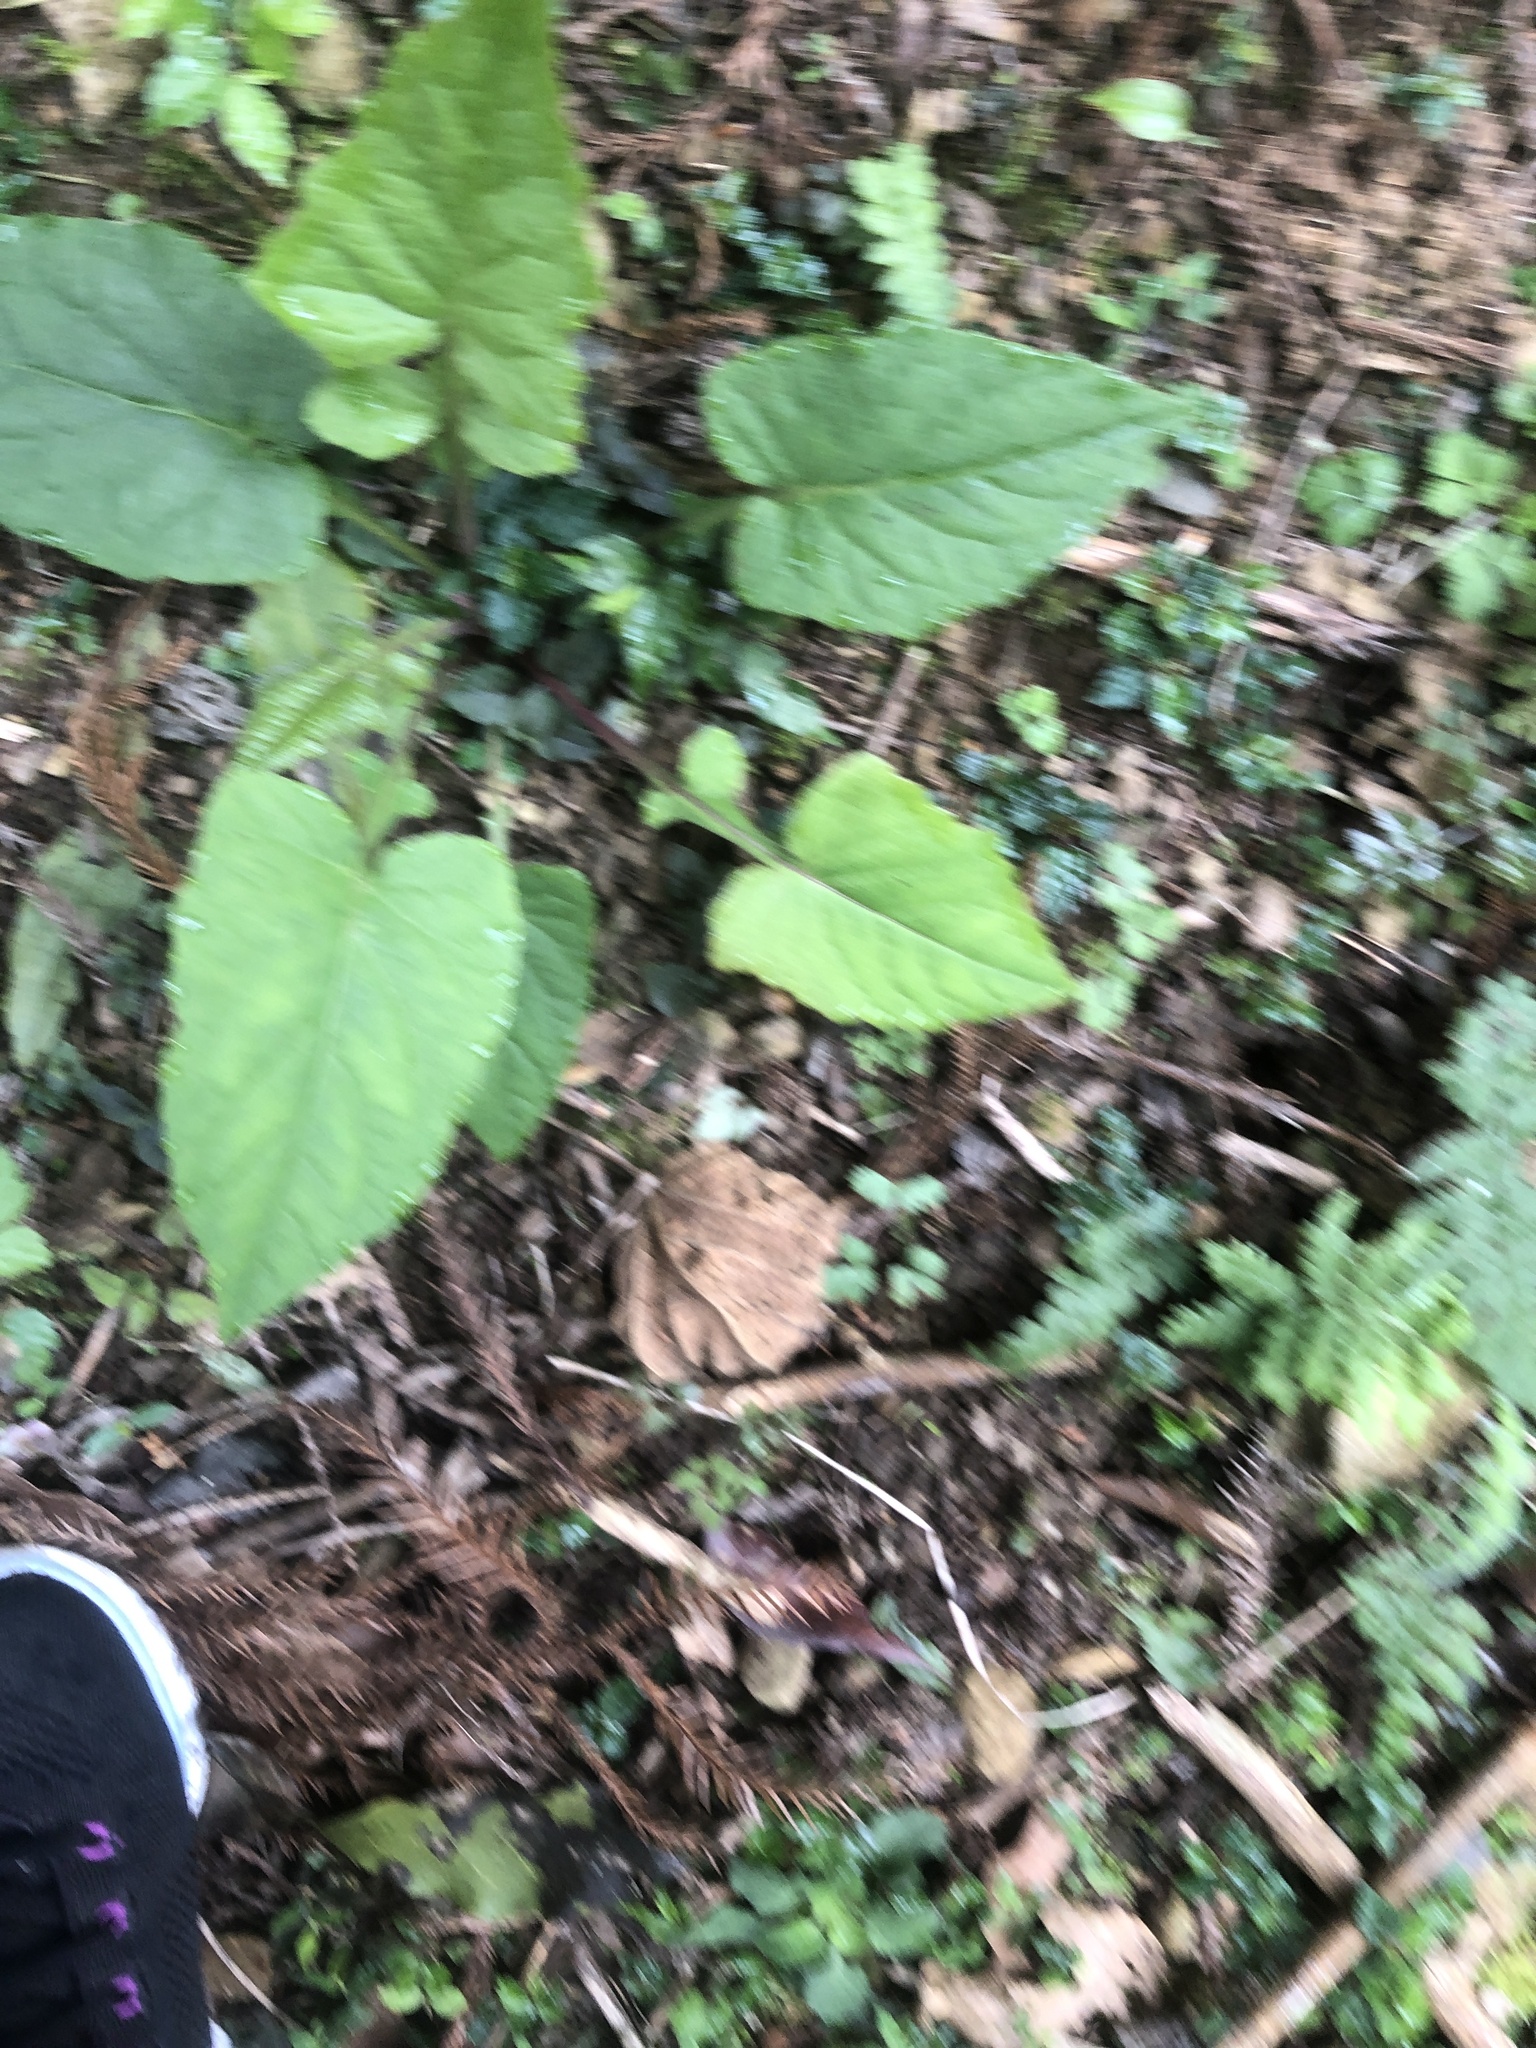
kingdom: Plantae
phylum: Tracheophyta
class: Magnoliopsida
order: Asterales
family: Asteraceae
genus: Paraprenanthes
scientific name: Paraprenanthes sororia
